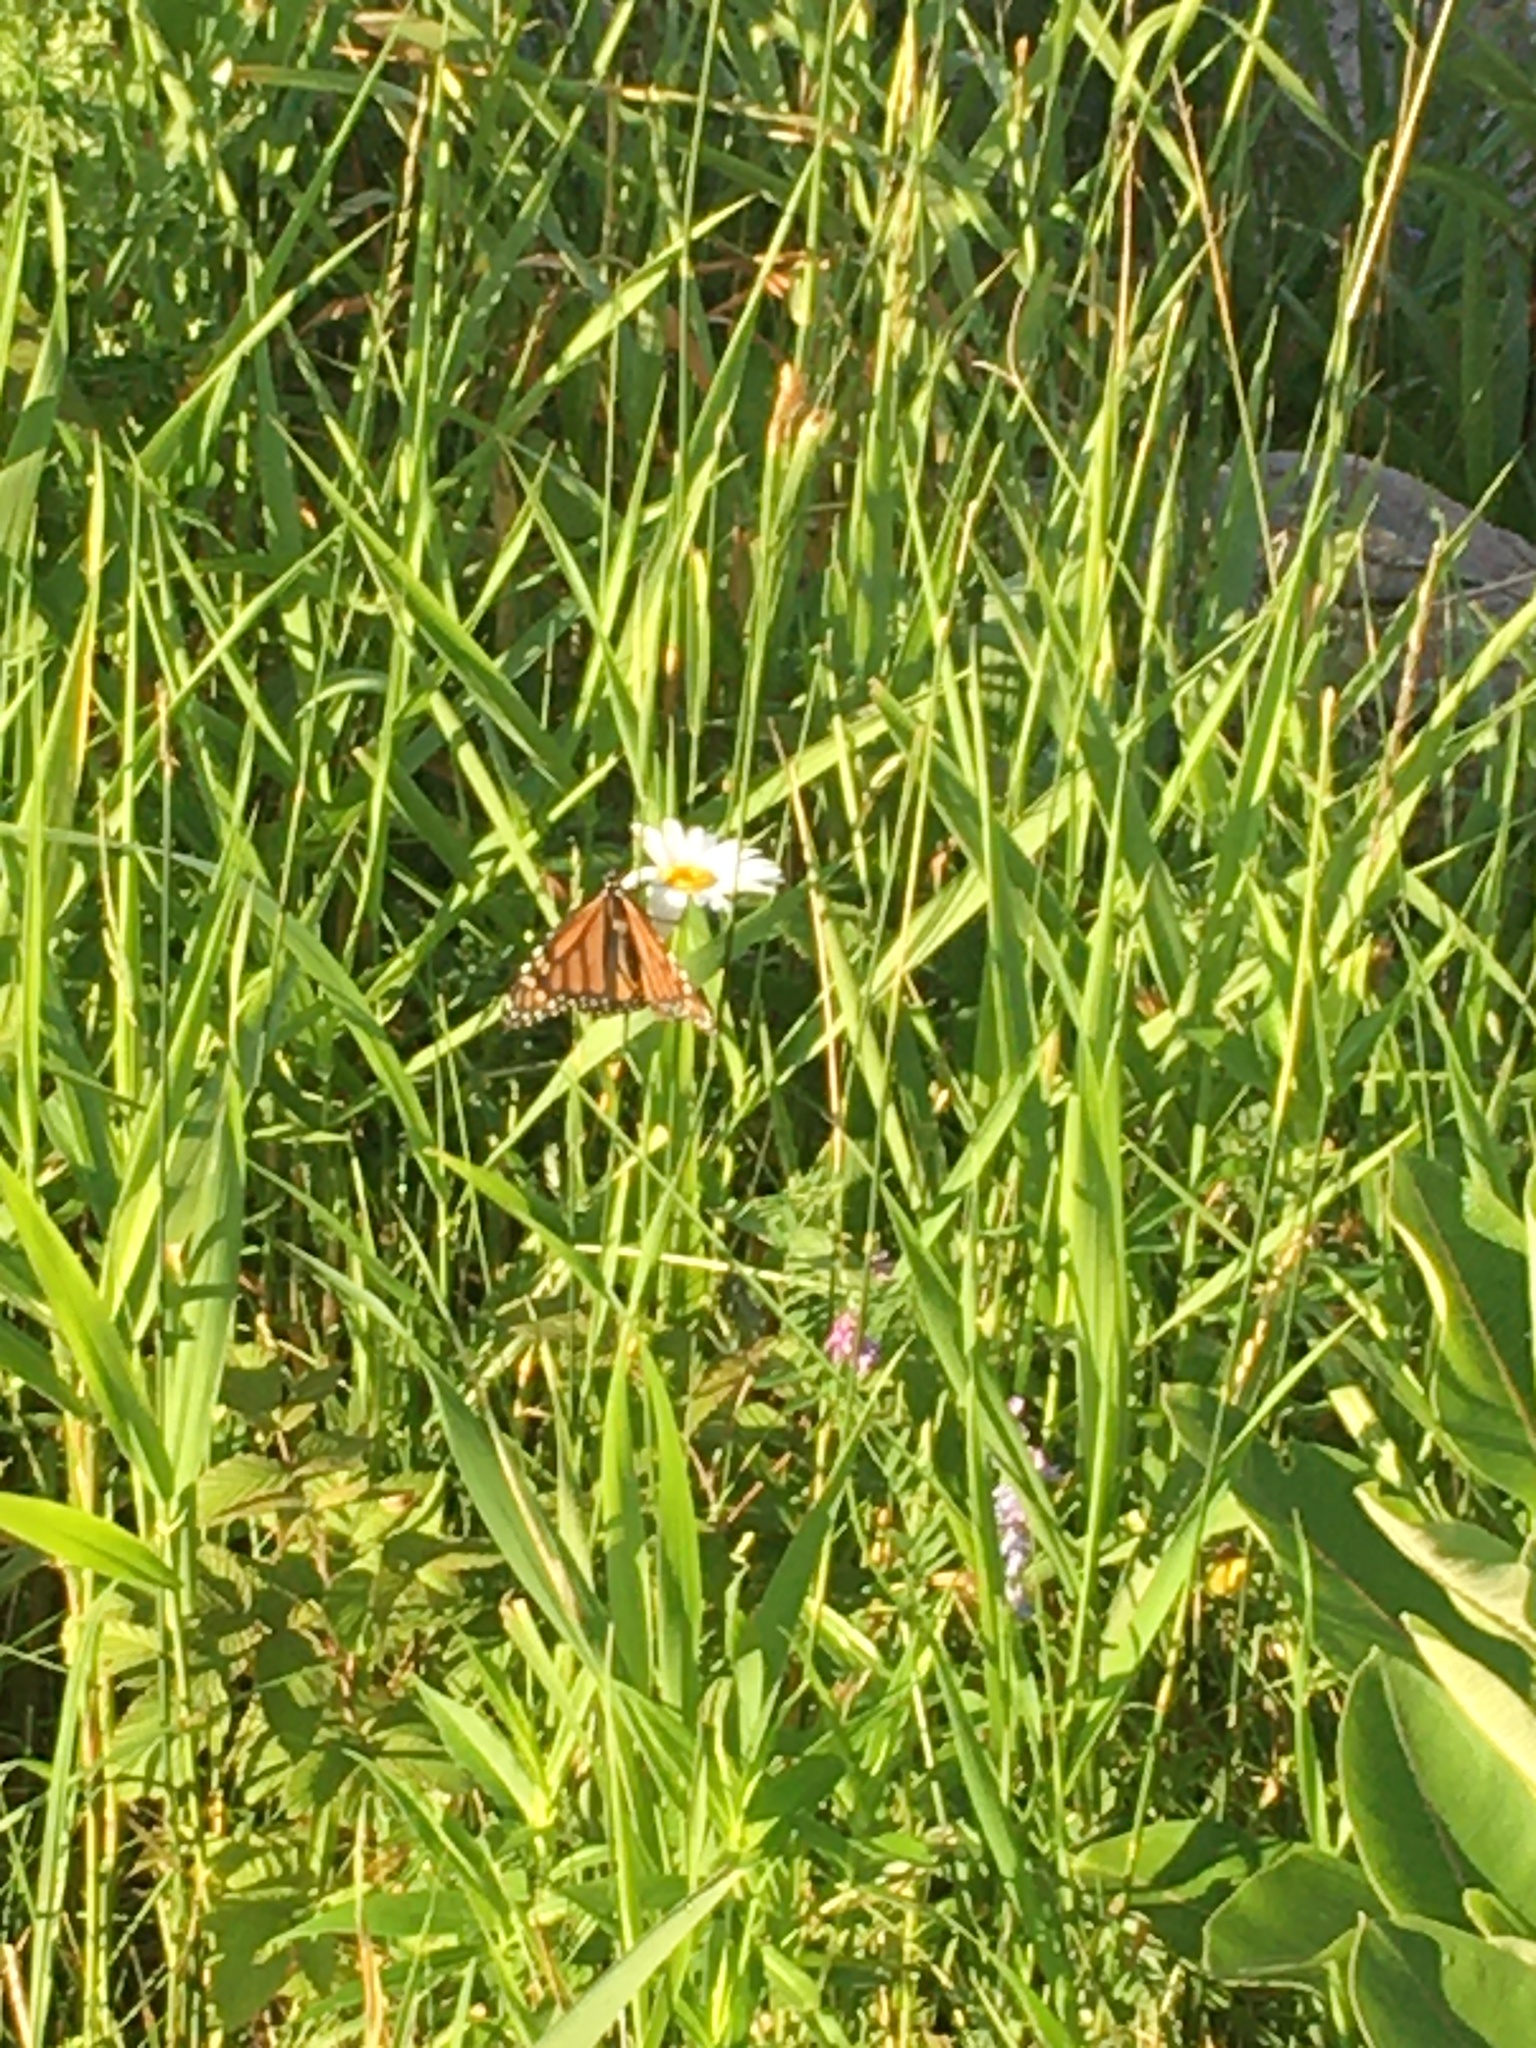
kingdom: Animalia
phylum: Arthropoda
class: Insecta
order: Lepidoptera
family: Nymphalidae
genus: Danaus
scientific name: Danaus plexippus
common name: Monarch
